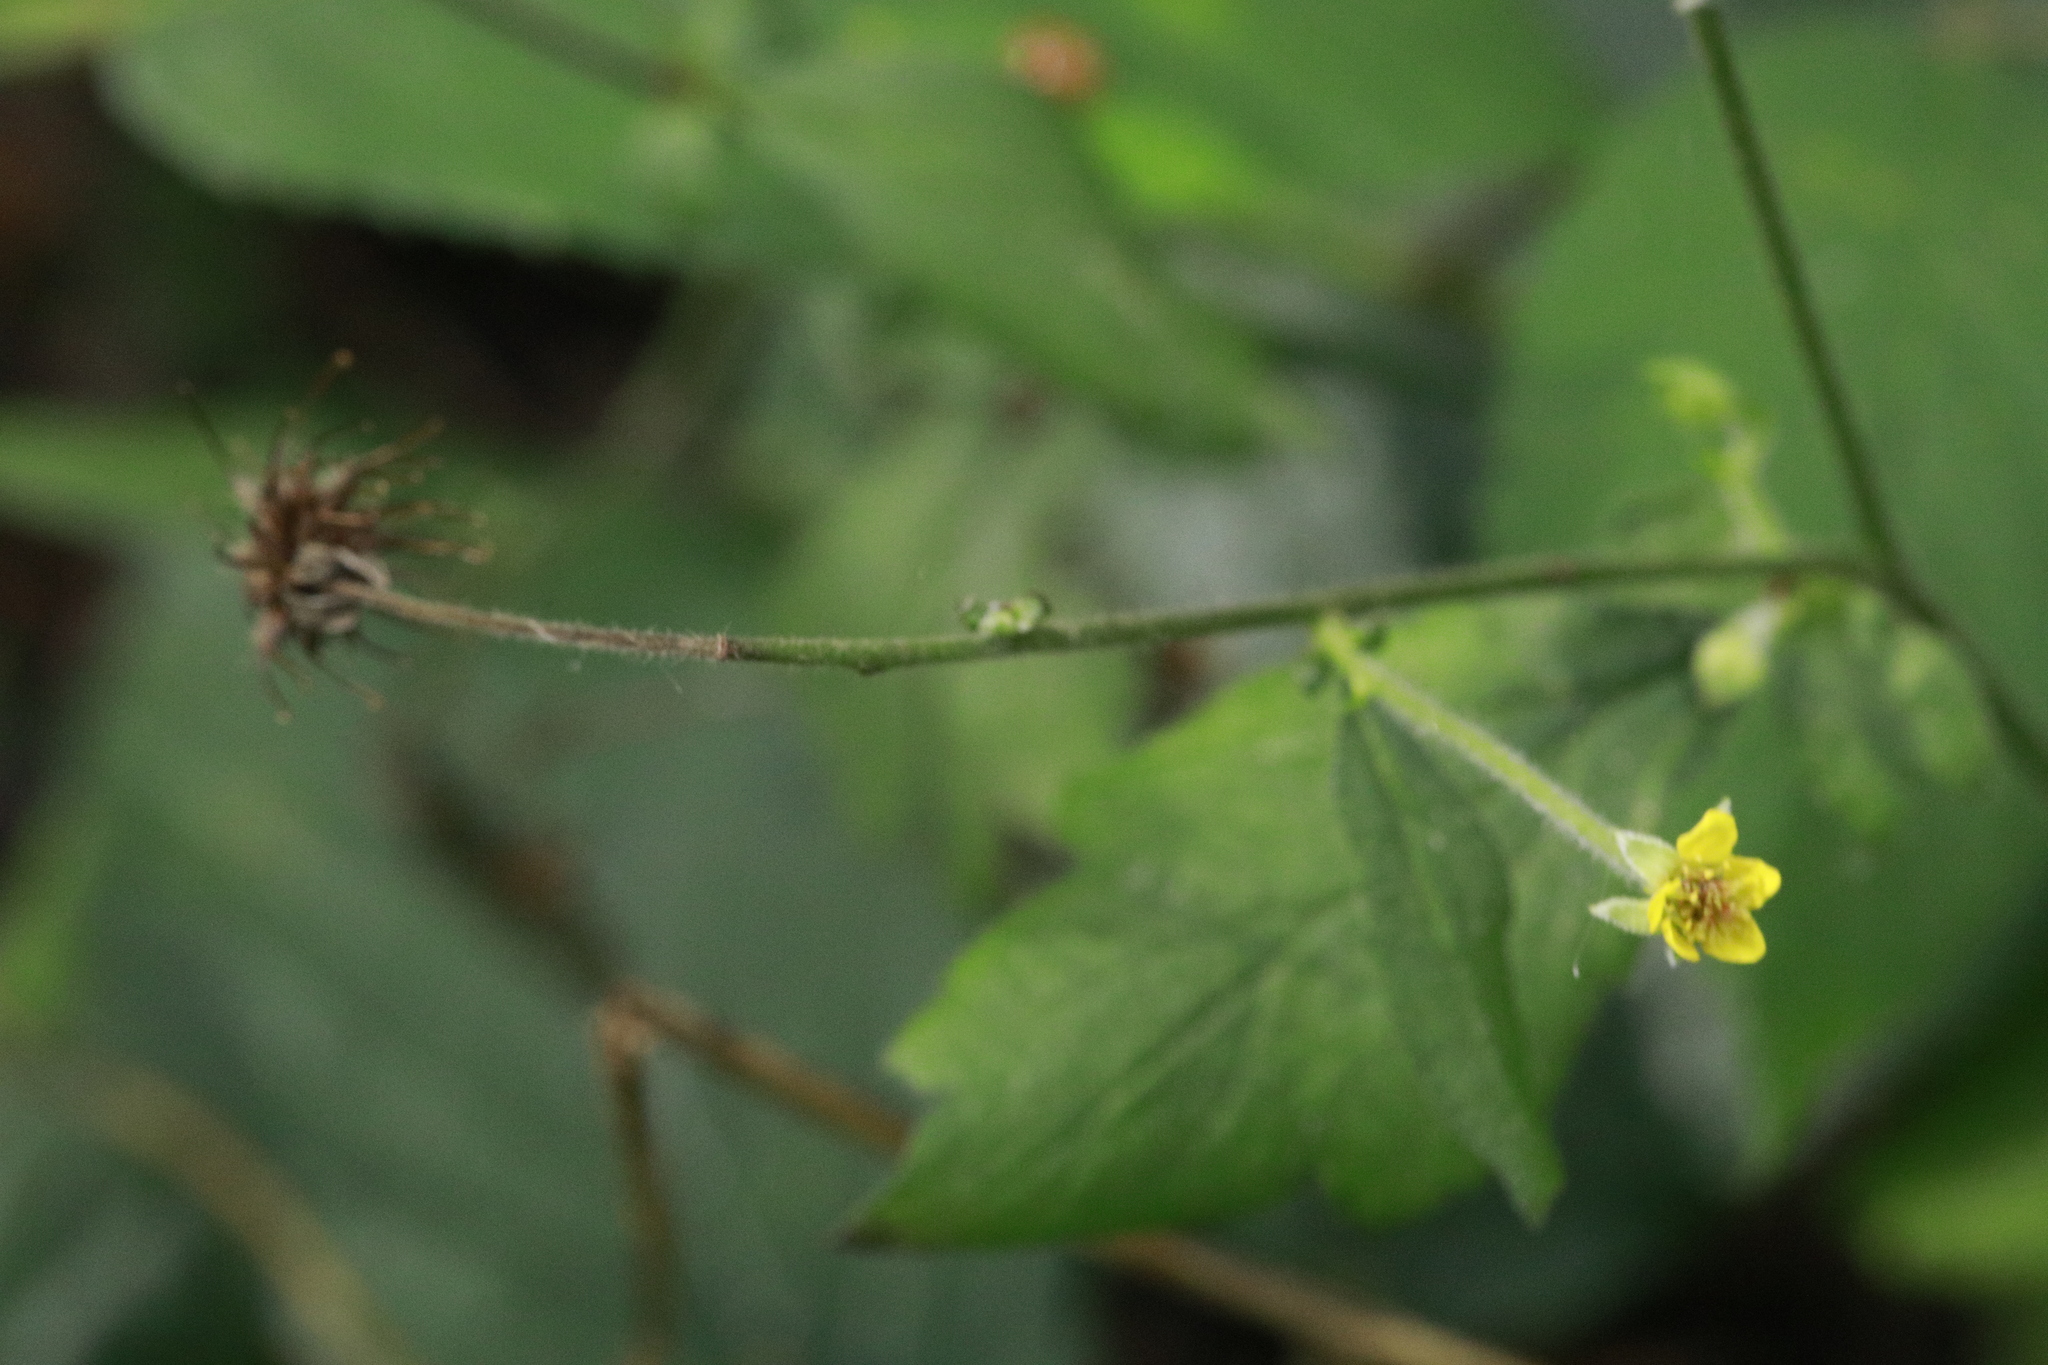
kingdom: Plantae
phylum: Tracheophyta
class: Magnoliopsida
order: Rosales
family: Rosaceae
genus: Geum
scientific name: Geum urbanum
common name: Wood avens
